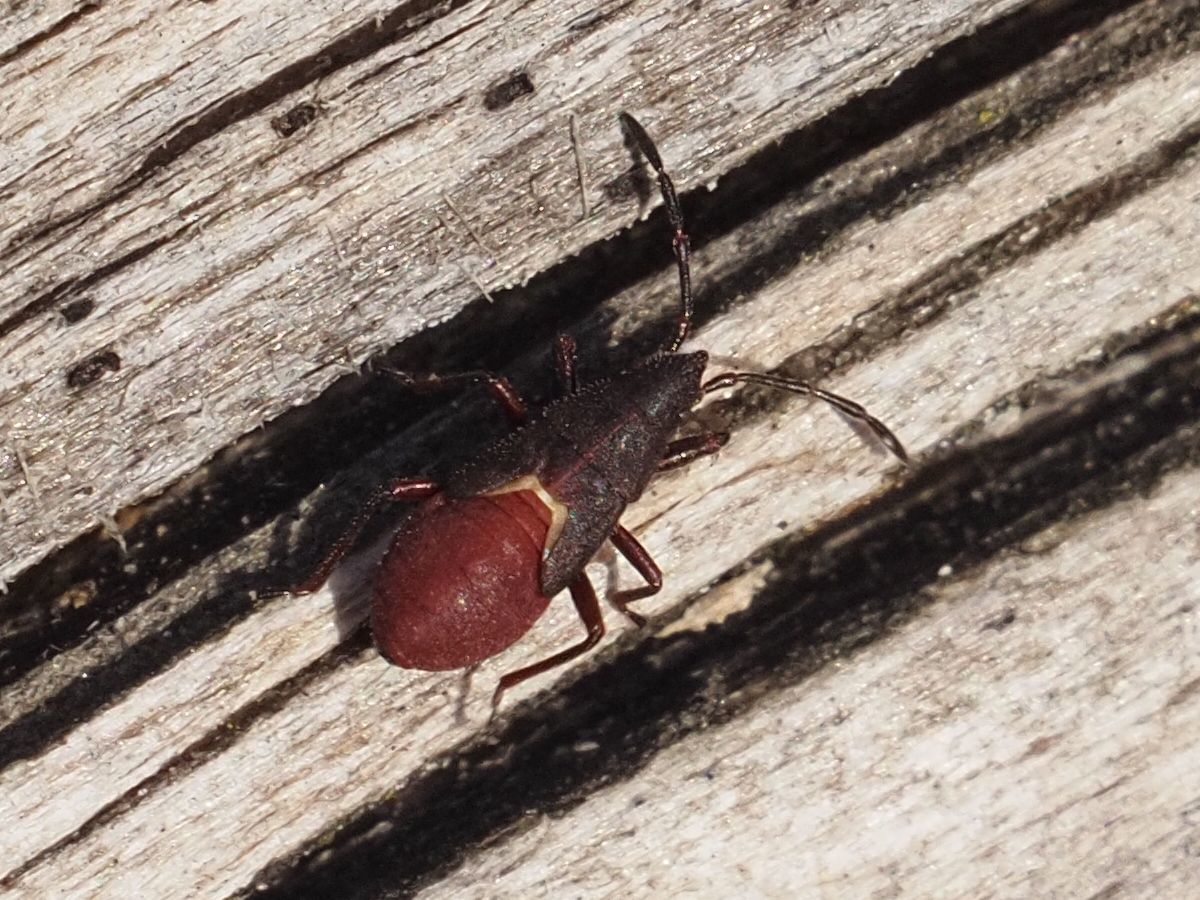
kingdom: Animalia
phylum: Arthropoda
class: Insecta
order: Hemiptera
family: Oxycarenidae
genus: Oxycarenus
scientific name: Oxycarenus lavaterae
